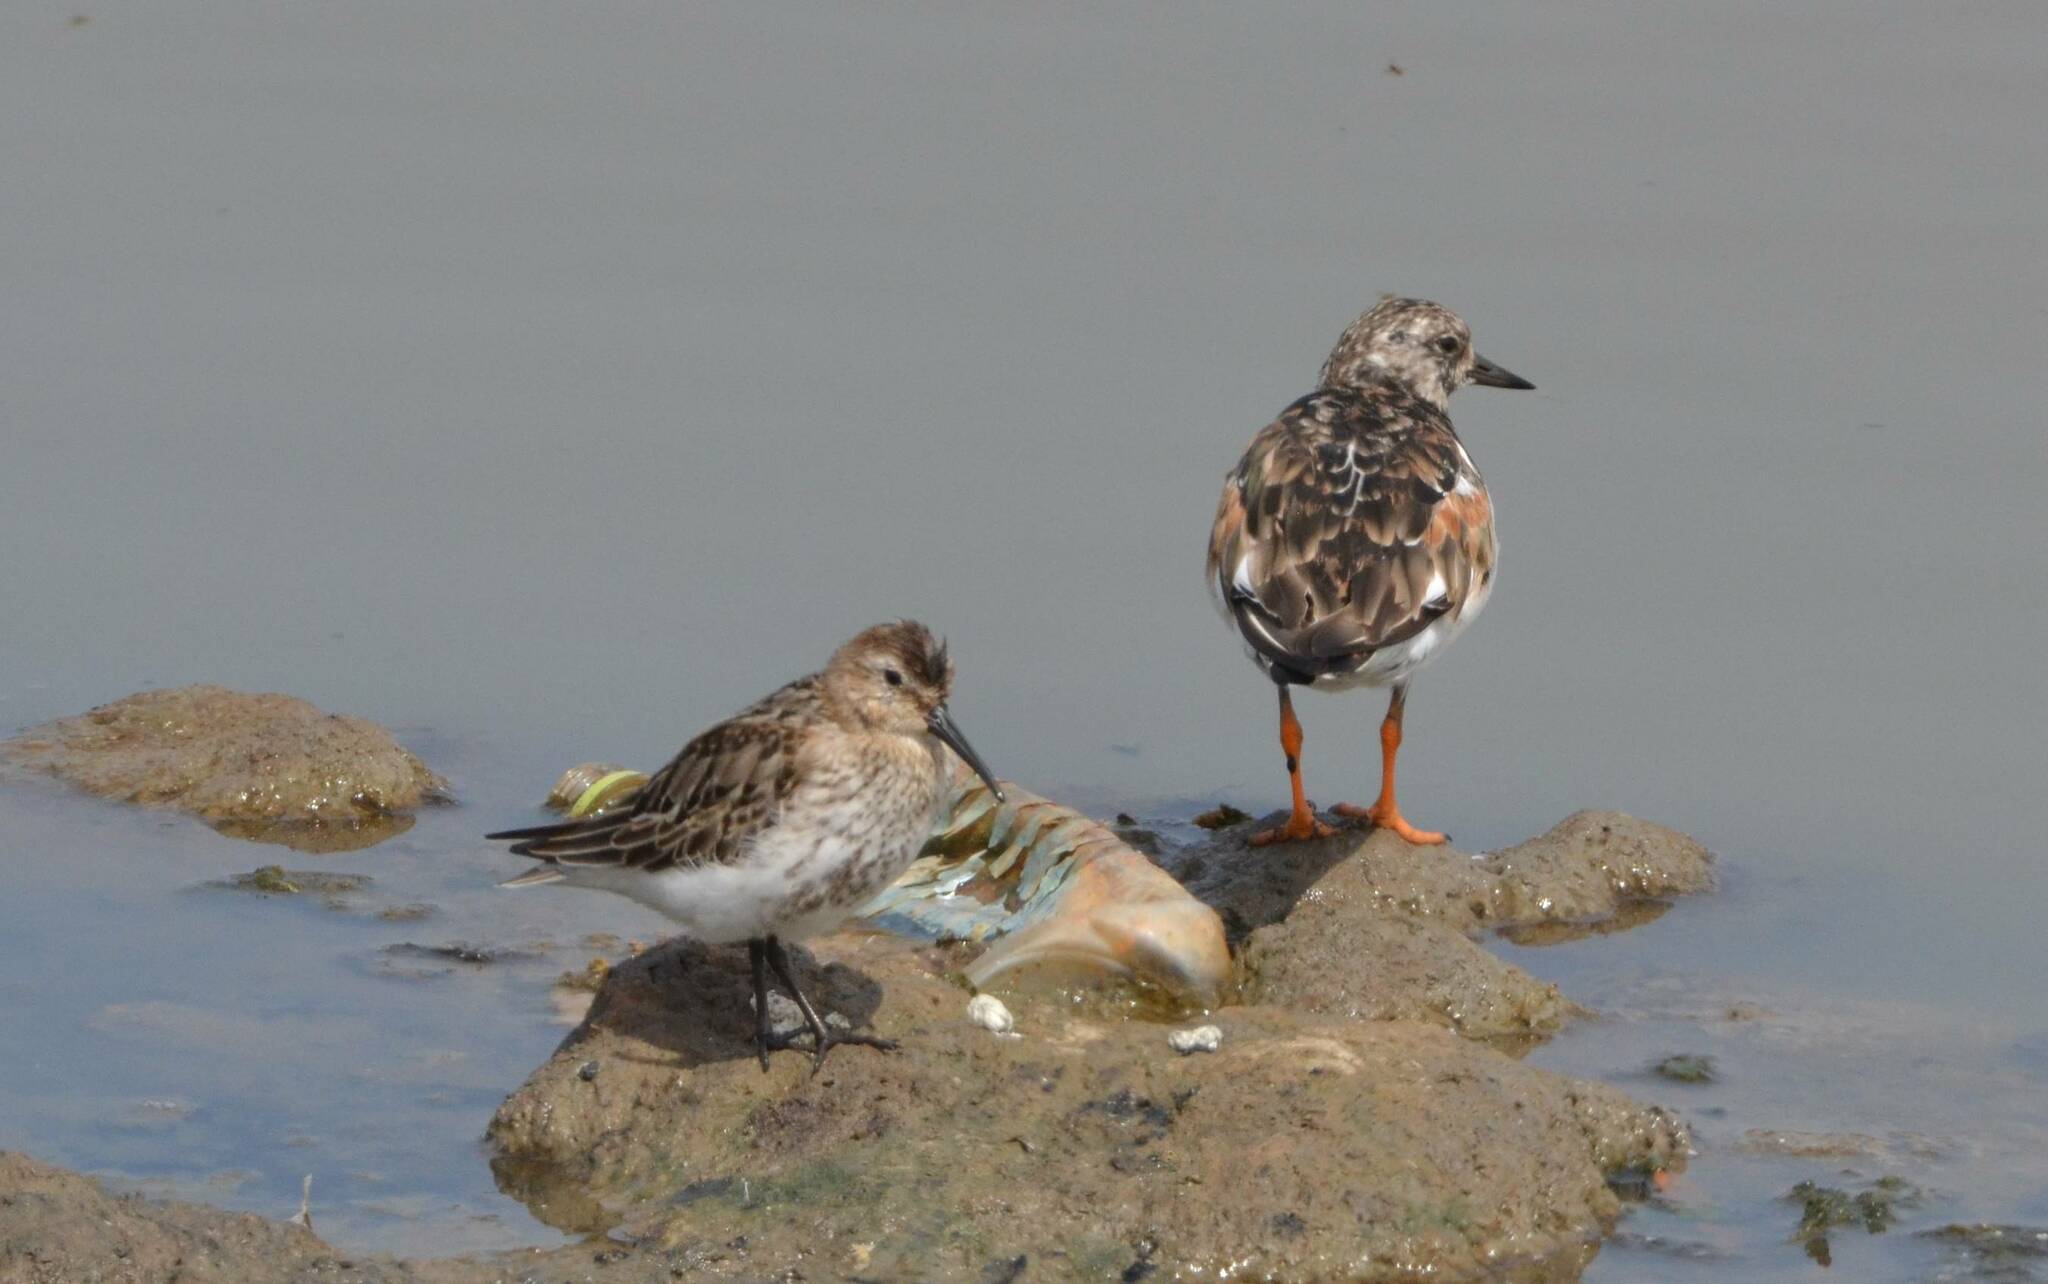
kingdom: Animalia
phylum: Chordata
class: Aves
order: Charadriiformes
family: Scolopacidae
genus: Calidris
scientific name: Calidris alpina
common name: Dunlin
